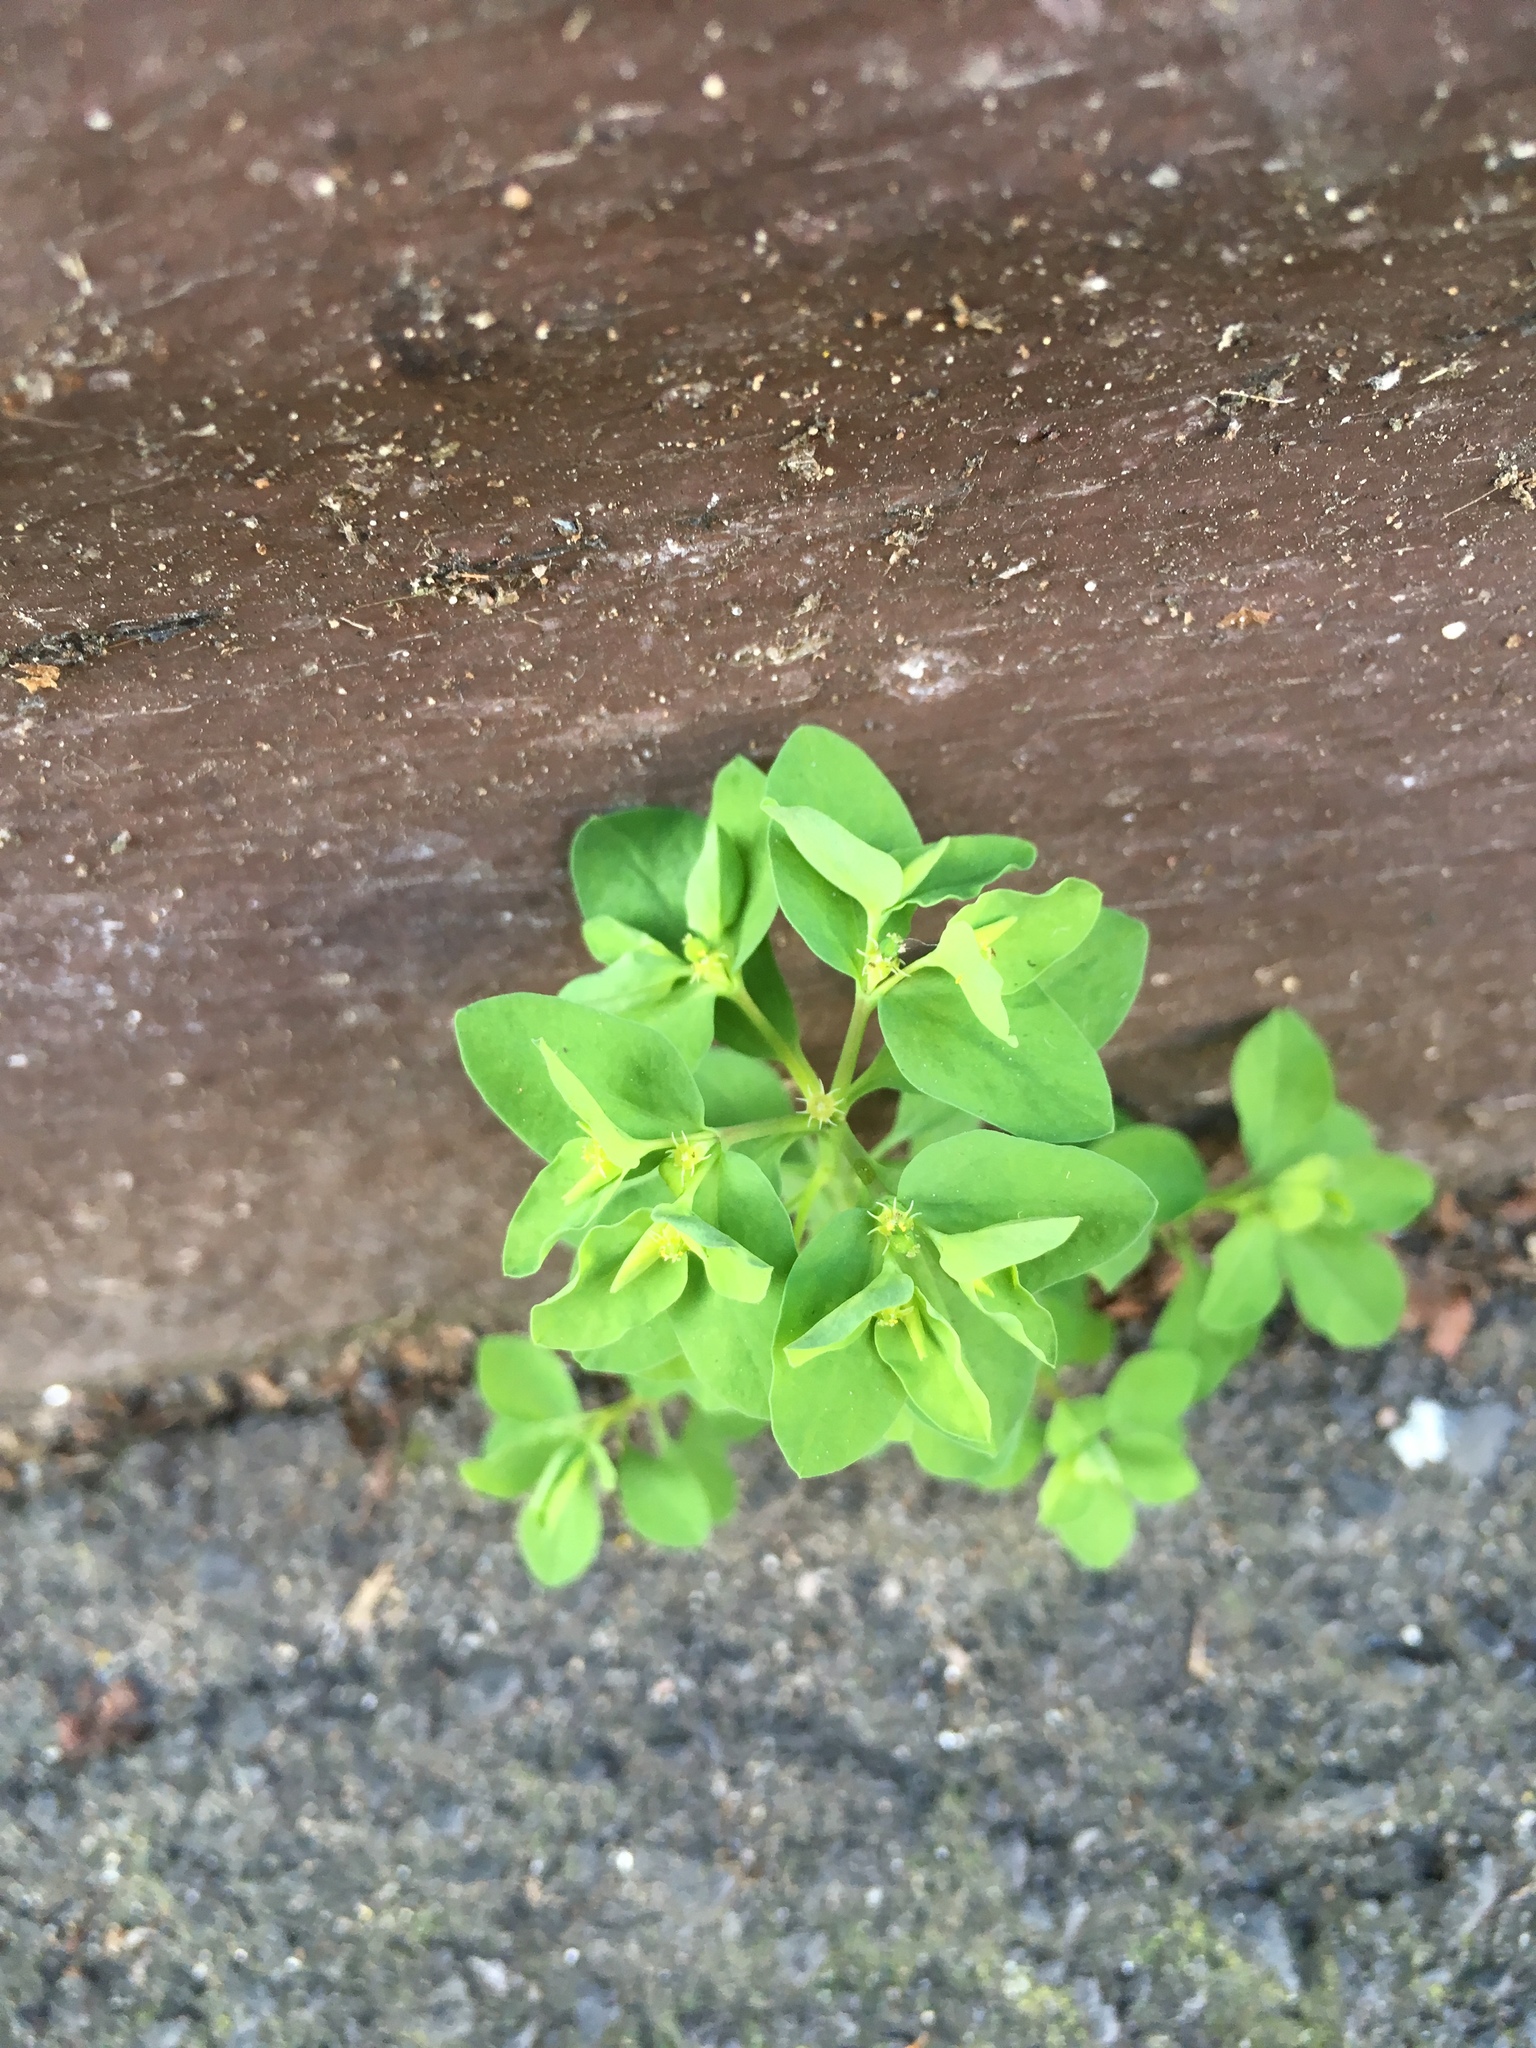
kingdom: Plantae
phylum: Tracheophyta
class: Magnoliopsida
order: Malpighiales
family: Euphorbiaceae
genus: Euphorbia
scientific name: Euphorbia peplus
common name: Petty spurge
